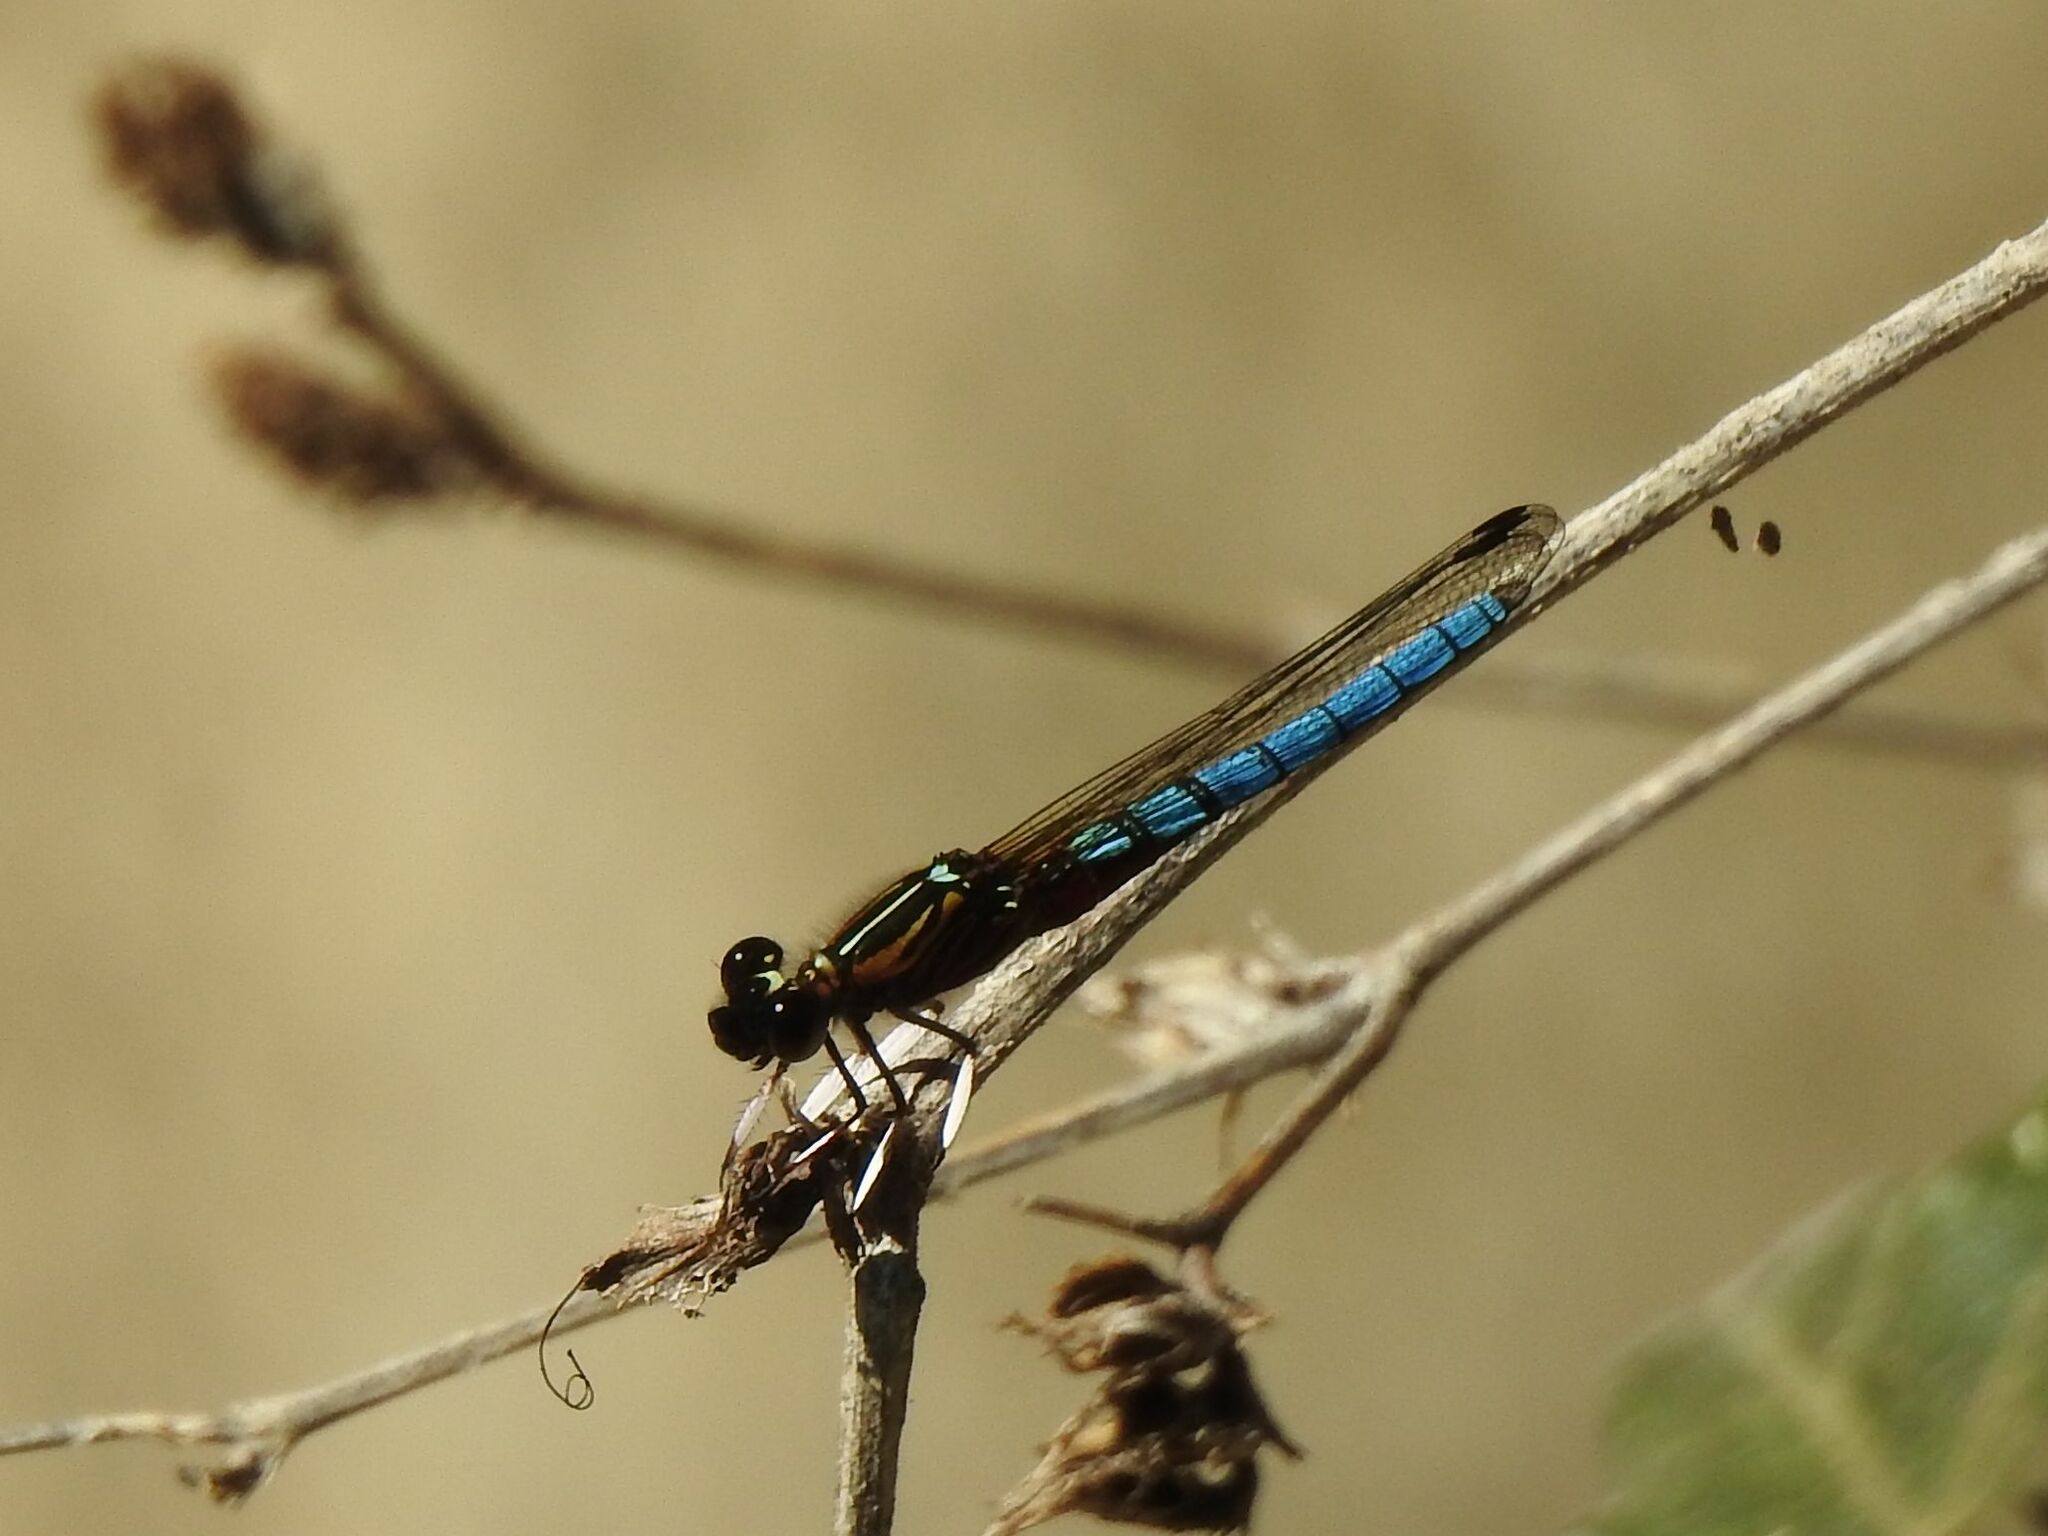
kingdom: Animalia
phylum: Arthropoda
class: Insecta
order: Odonata
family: Chlorocyphidae
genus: Platycypha
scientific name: Platycypha caligata
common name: Dancing jewel
